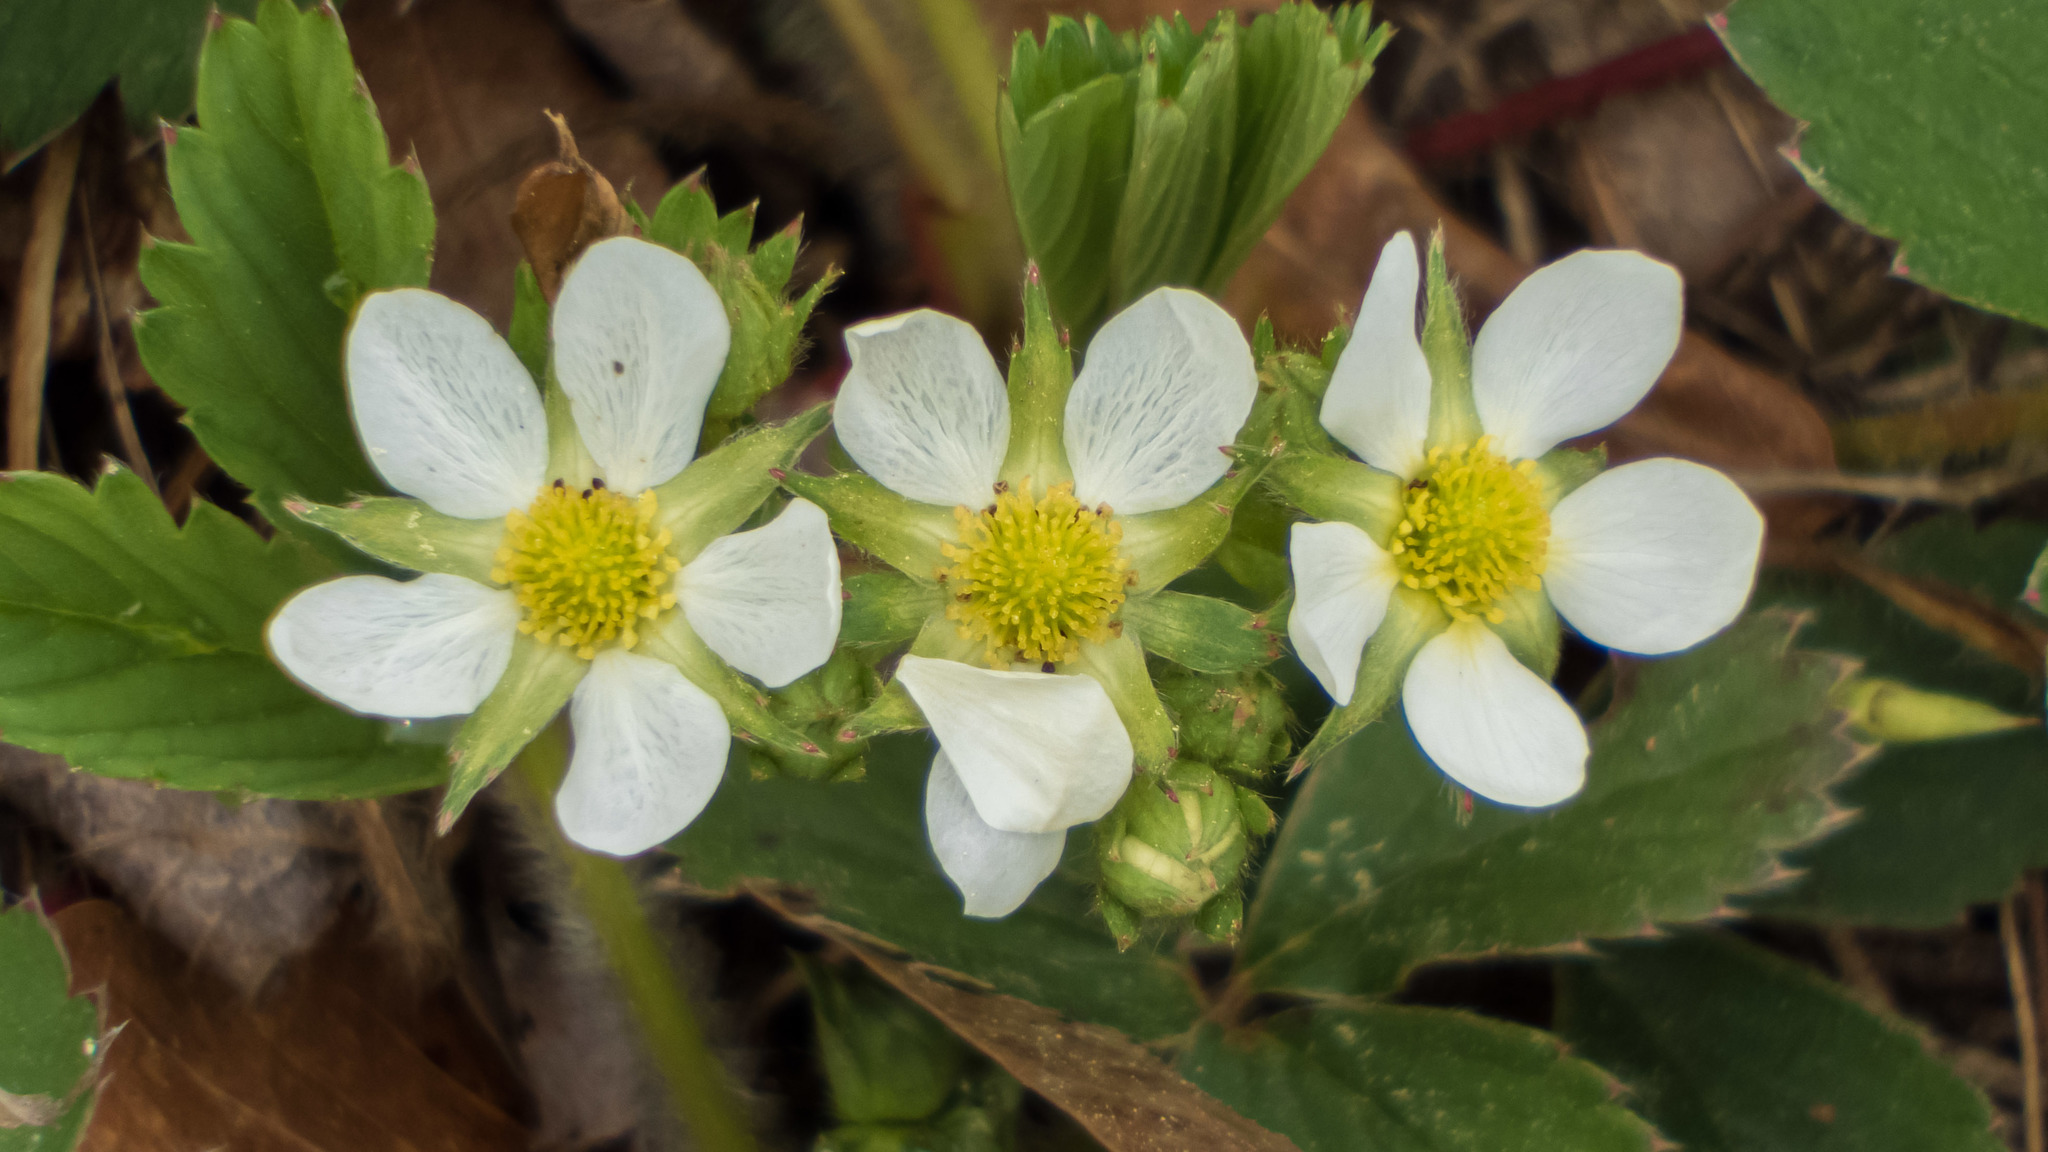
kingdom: Plantae
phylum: Tracheophyta
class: Magnoliopsida
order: Rosales
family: Rosaceae
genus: Fragaria
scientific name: Fragaria virginiana
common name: Thickleaved wild strawberry
